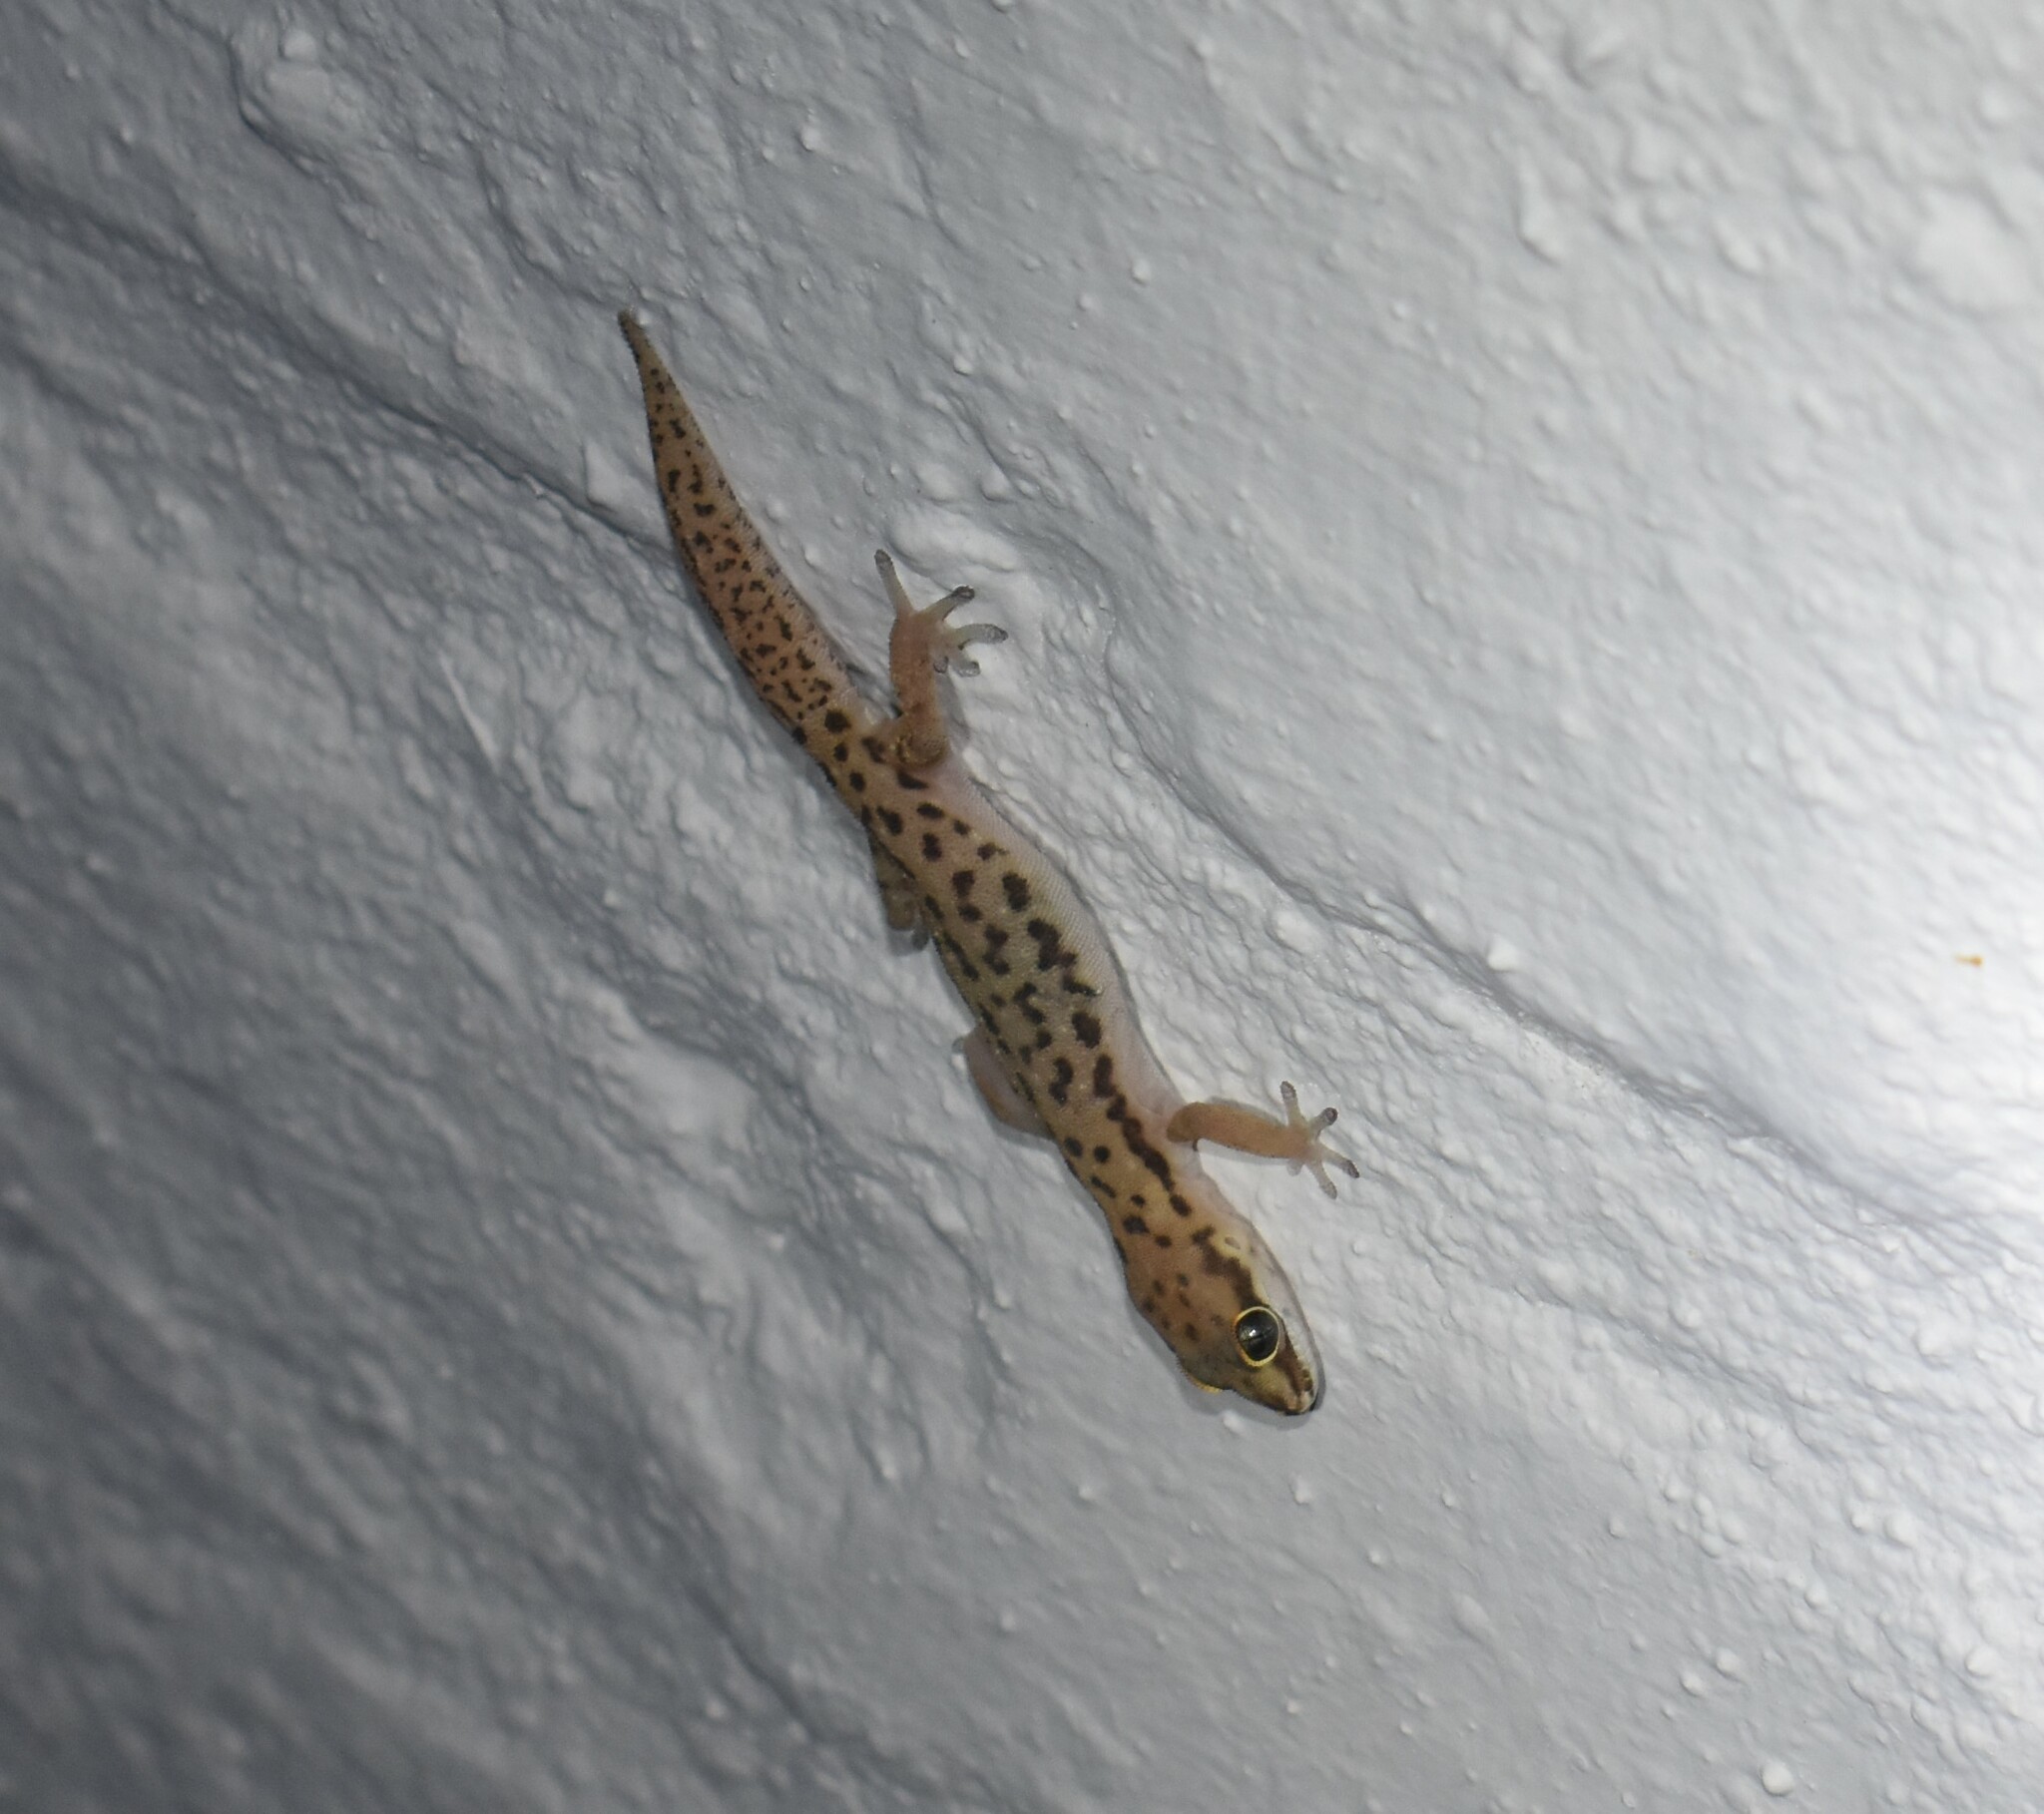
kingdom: Animalia
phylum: Chordata
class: Squamata
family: Gekkonidae
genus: Pachydactylus
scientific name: Pachydactylus geitje
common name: Ocellated thick-toed gecko
